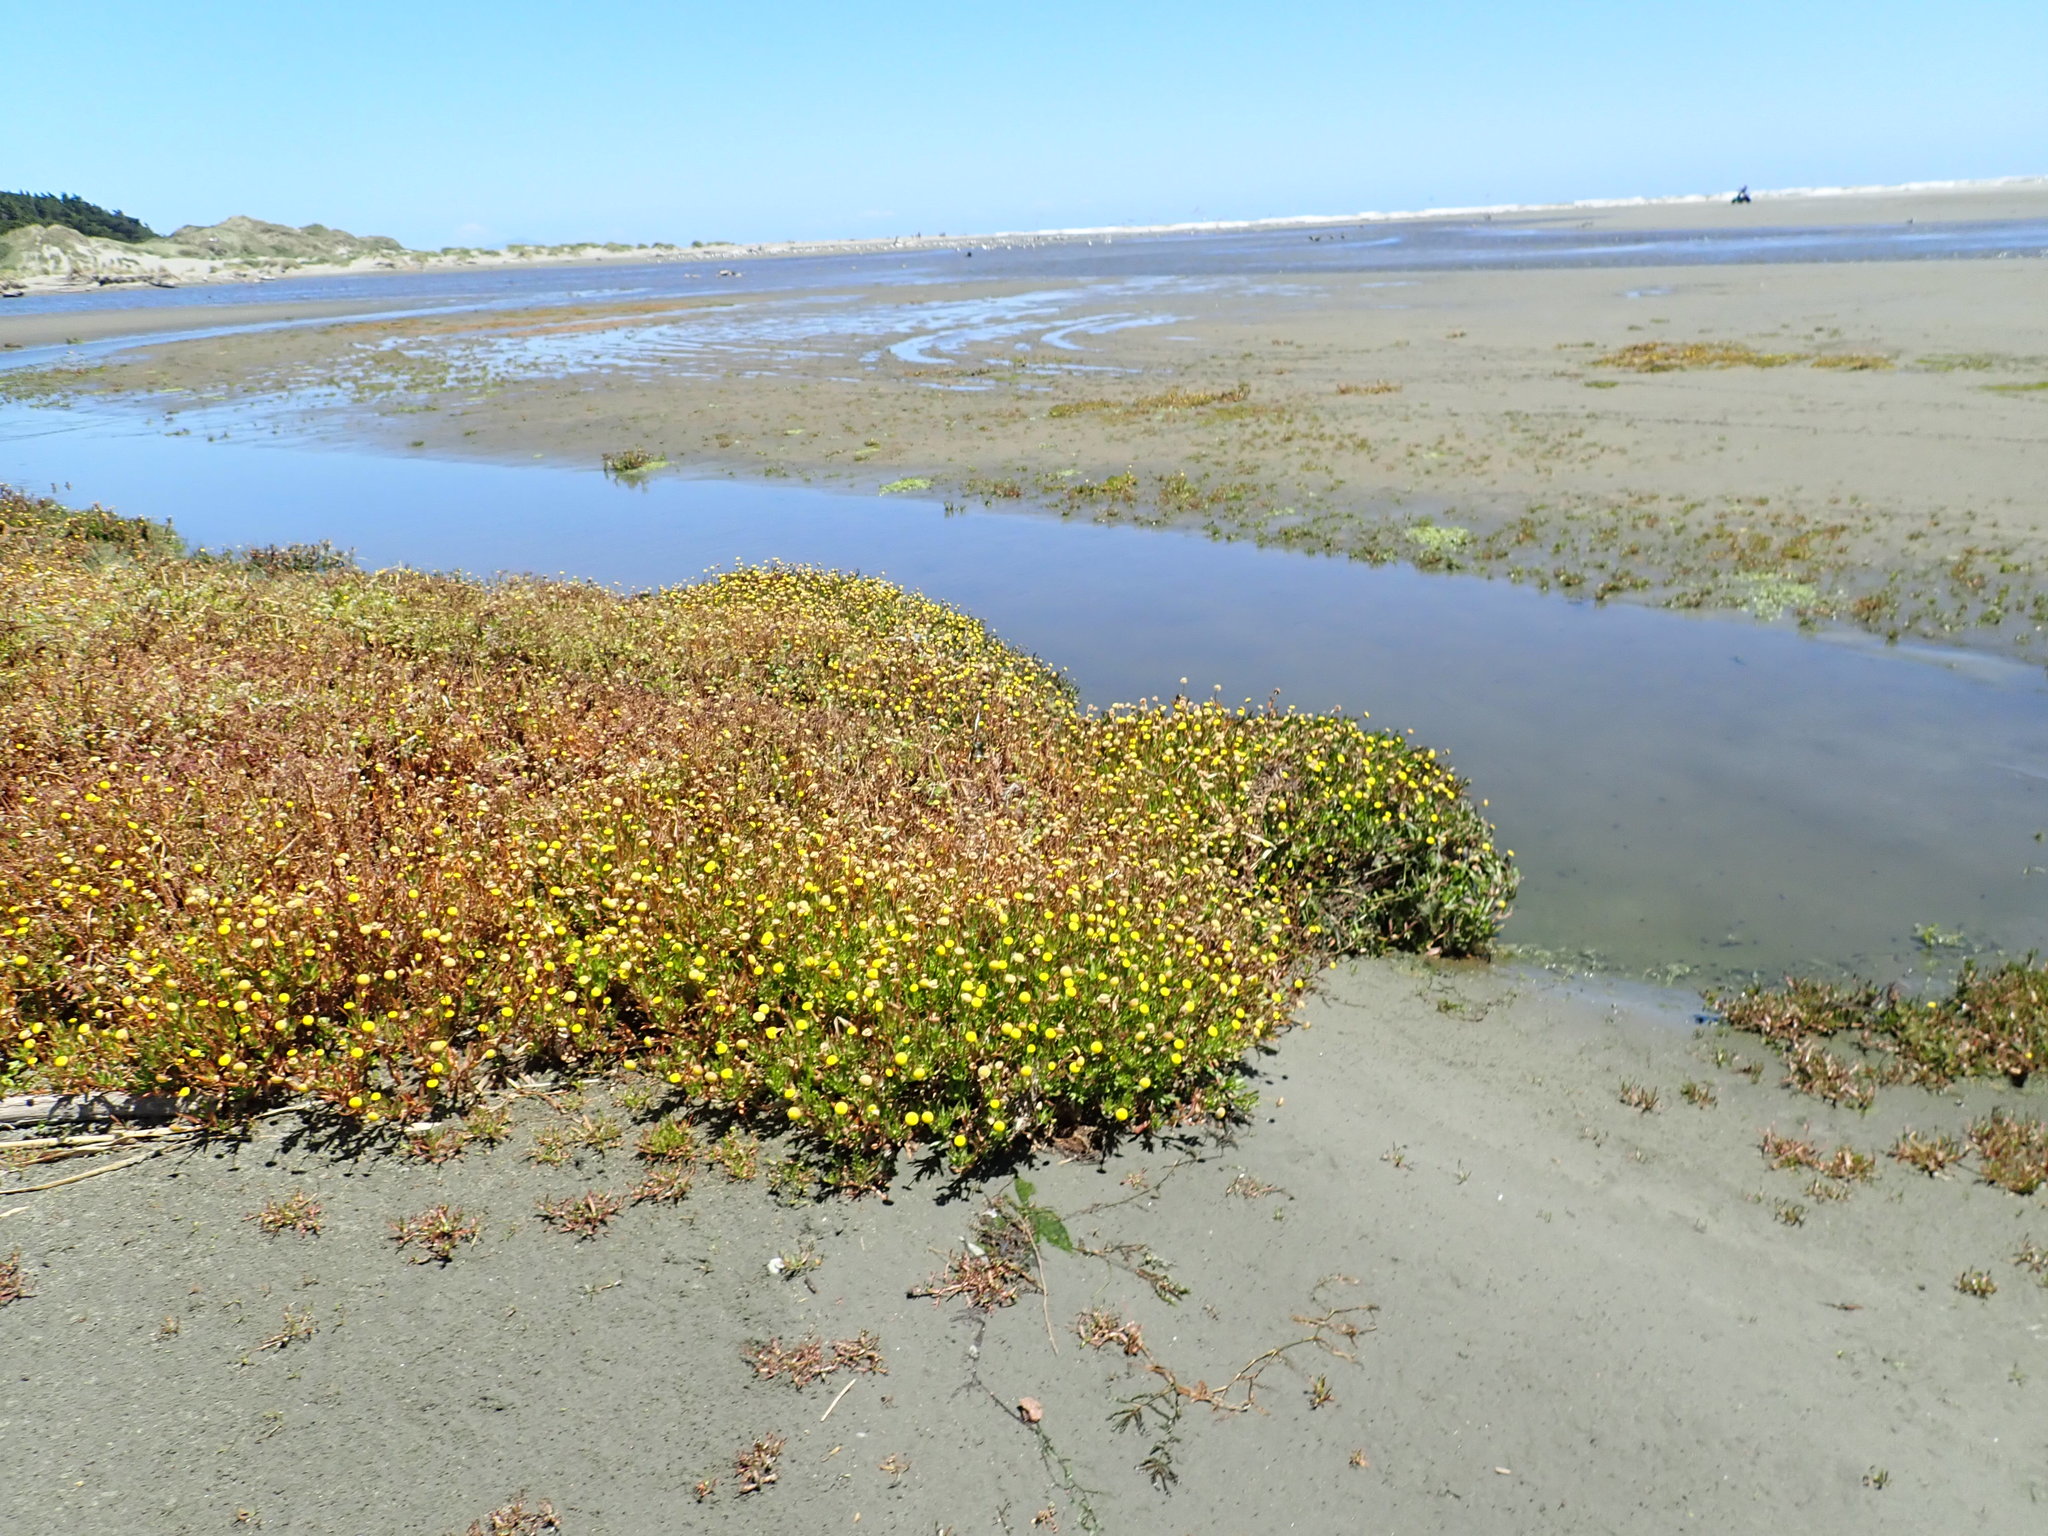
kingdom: Plantae
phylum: Tracheophyta
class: Magnoliopsida
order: Asterales
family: Asteraceae
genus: Cotula
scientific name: Cotula coronopifolia
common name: Buttonweed
